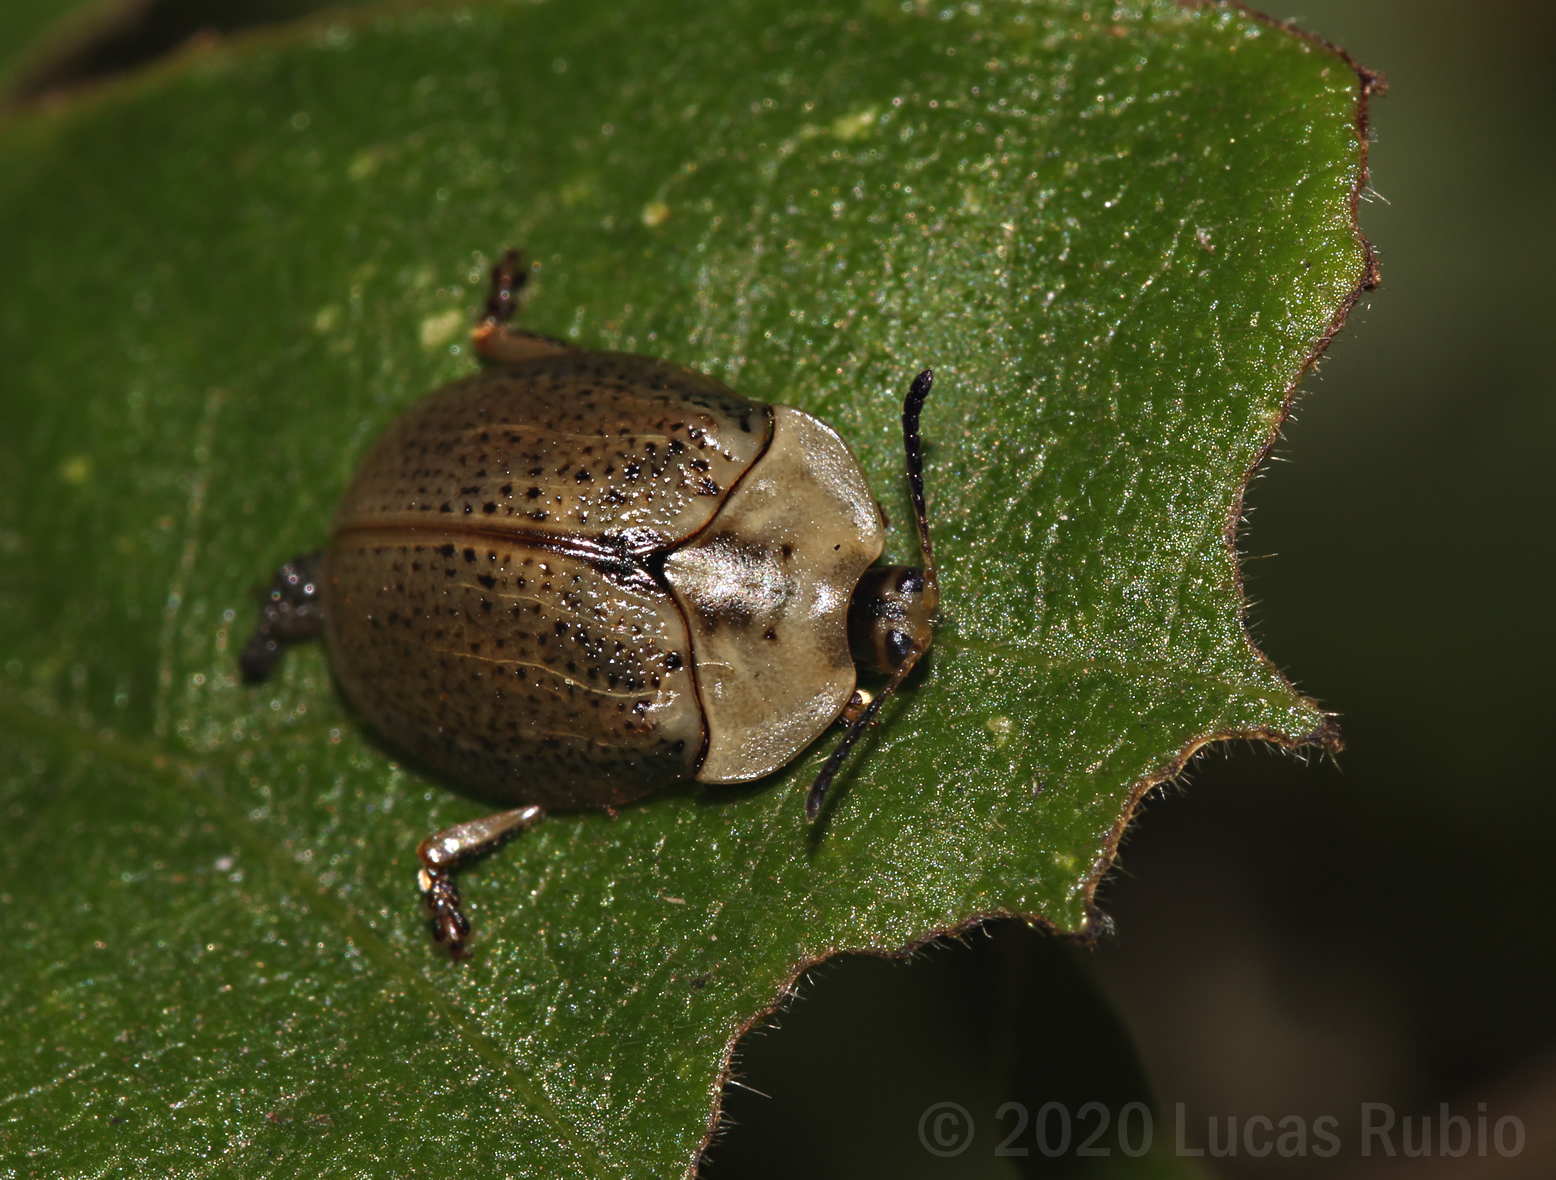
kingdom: Animalia
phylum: Arthropoda
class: Insecta
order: Coleoptera
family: Chrysomelidae
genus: Chelymorpha
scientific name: Chelymorpha indigesta
